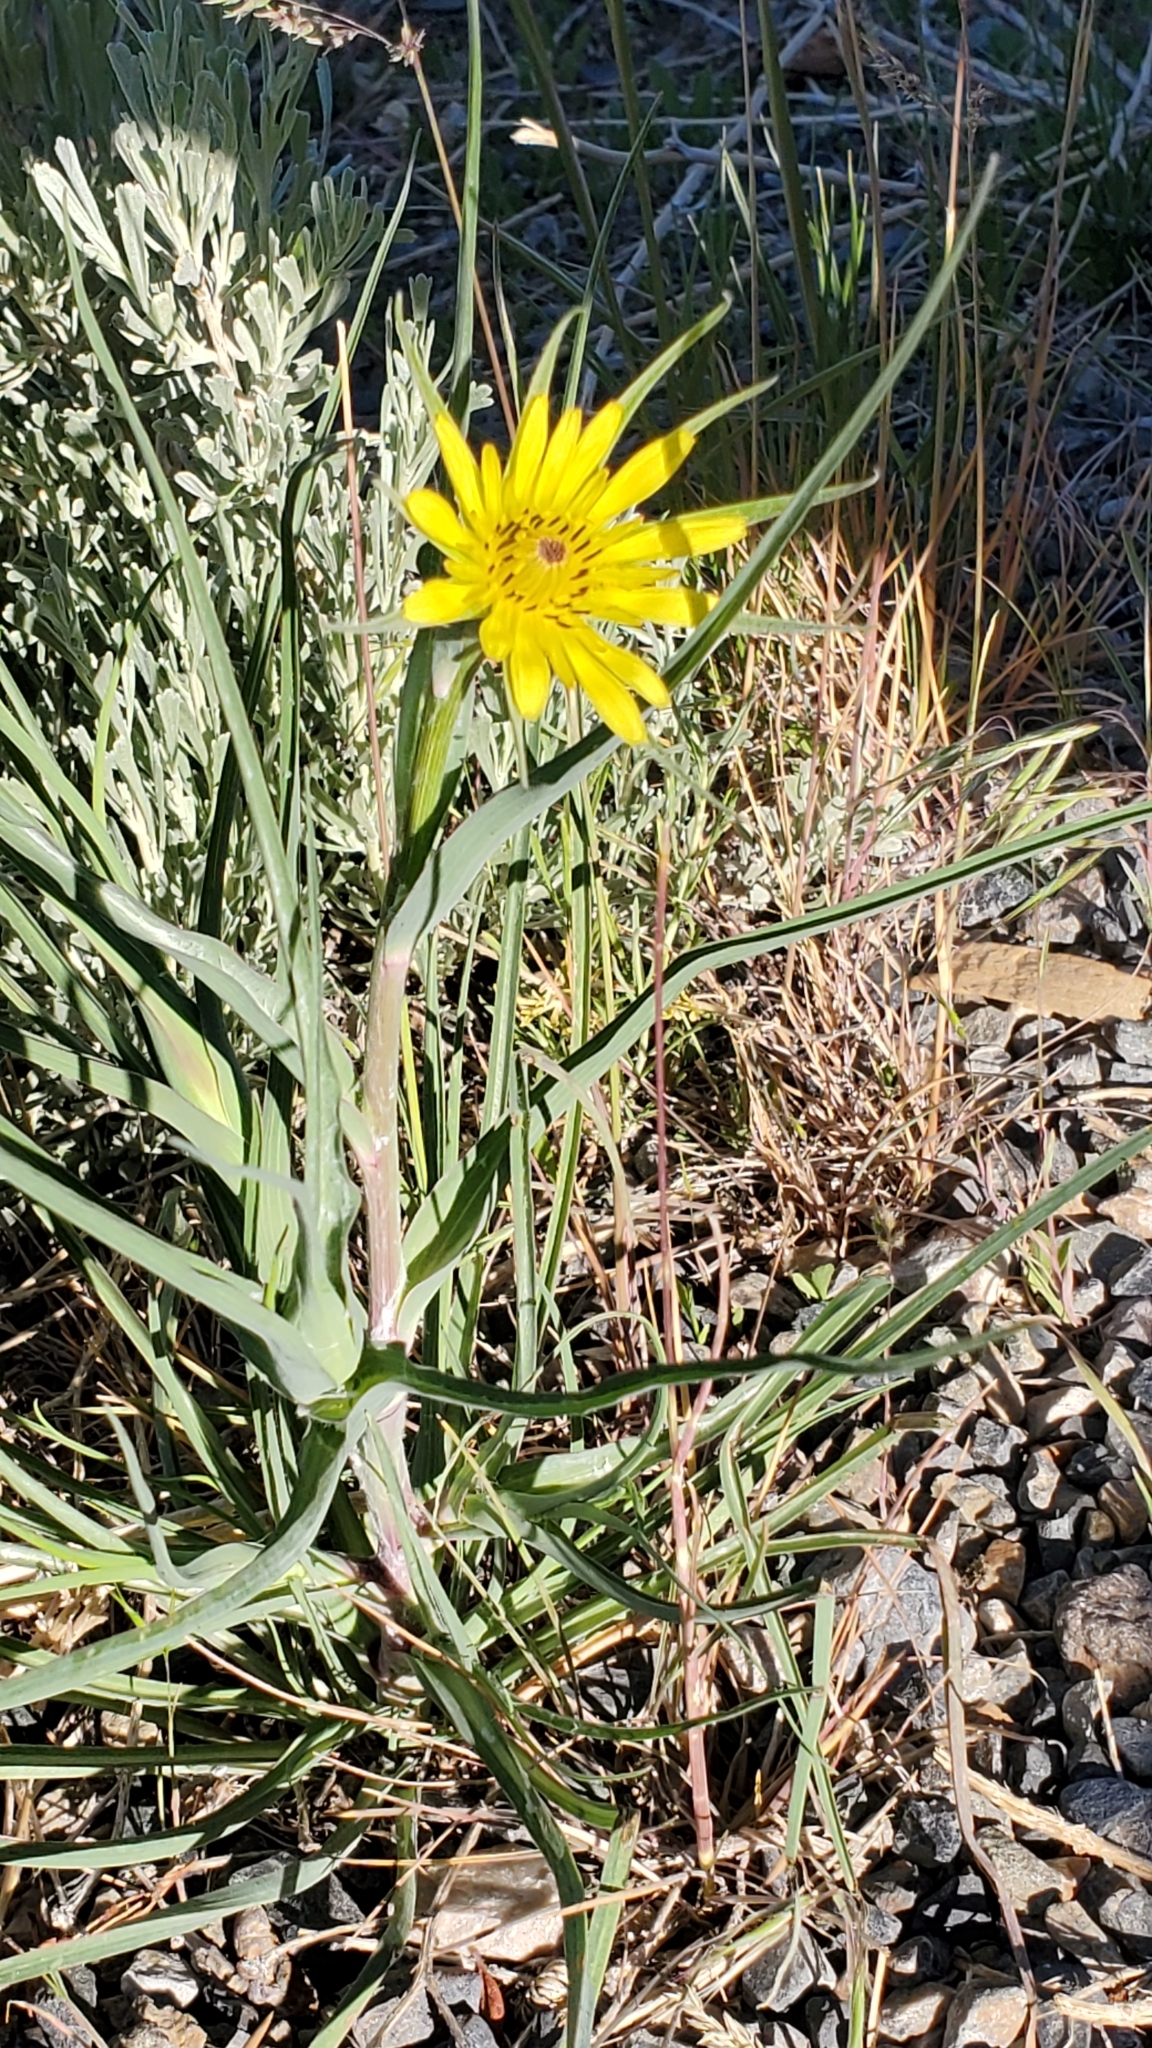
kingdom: Plantae
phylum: Tracheophyta
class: Magnoliopsida
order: Asterales
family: Asteraceae
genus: Tragopogon
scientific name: Tragopogon dubius
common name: Yellow salsify
